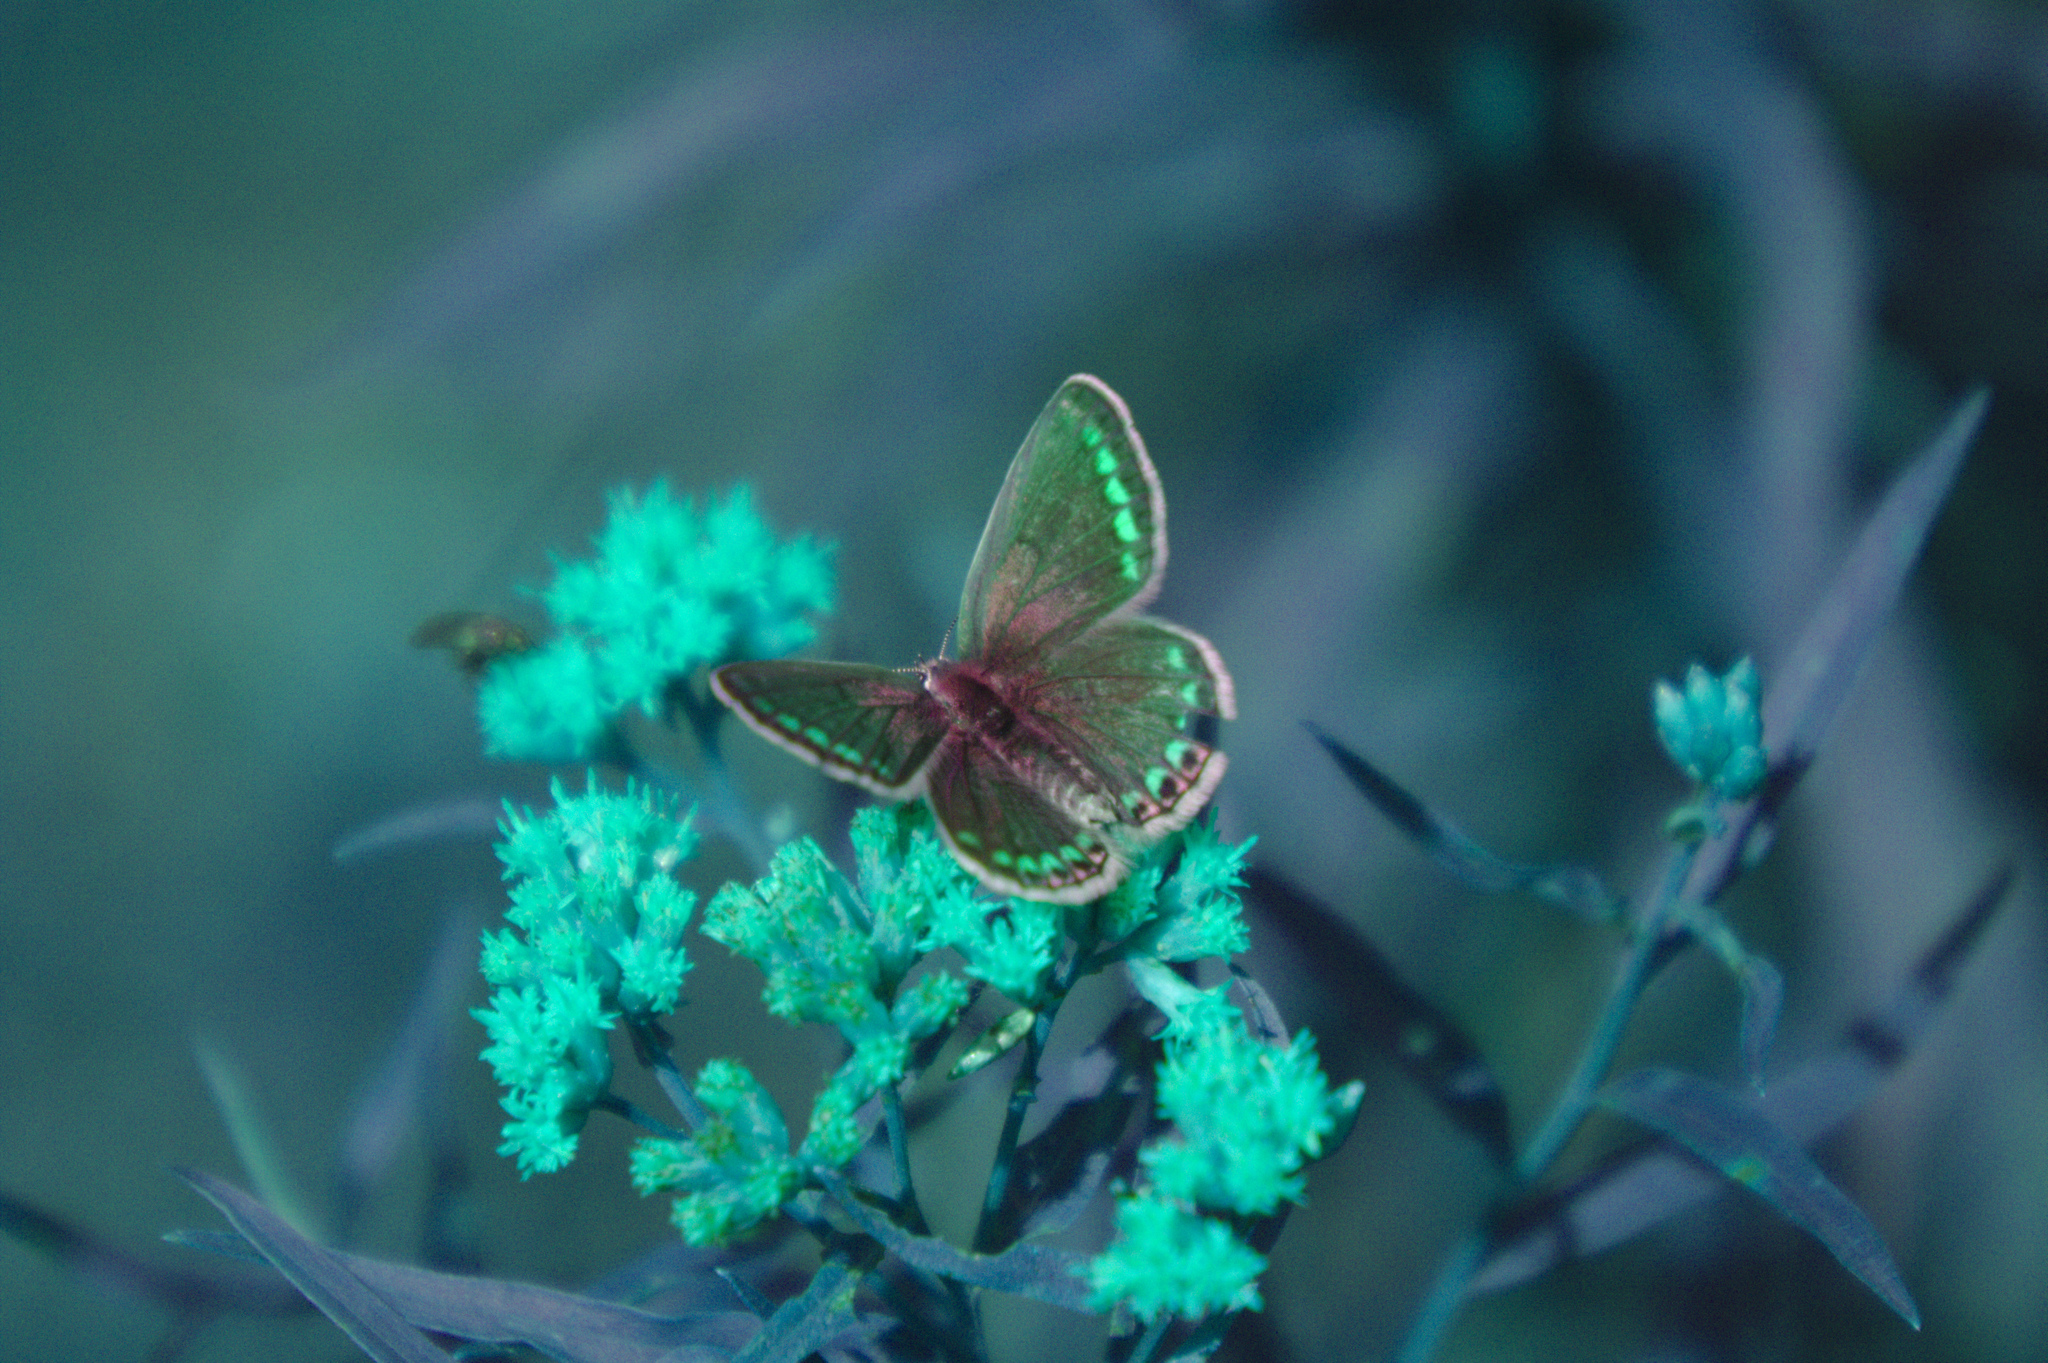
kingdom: Animalia
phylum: Arthropoda
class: Insecta
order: Lepidoptera
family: Lycaenidae
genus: Polyommatus
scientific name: Polyommatus icarus
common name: Common blue
